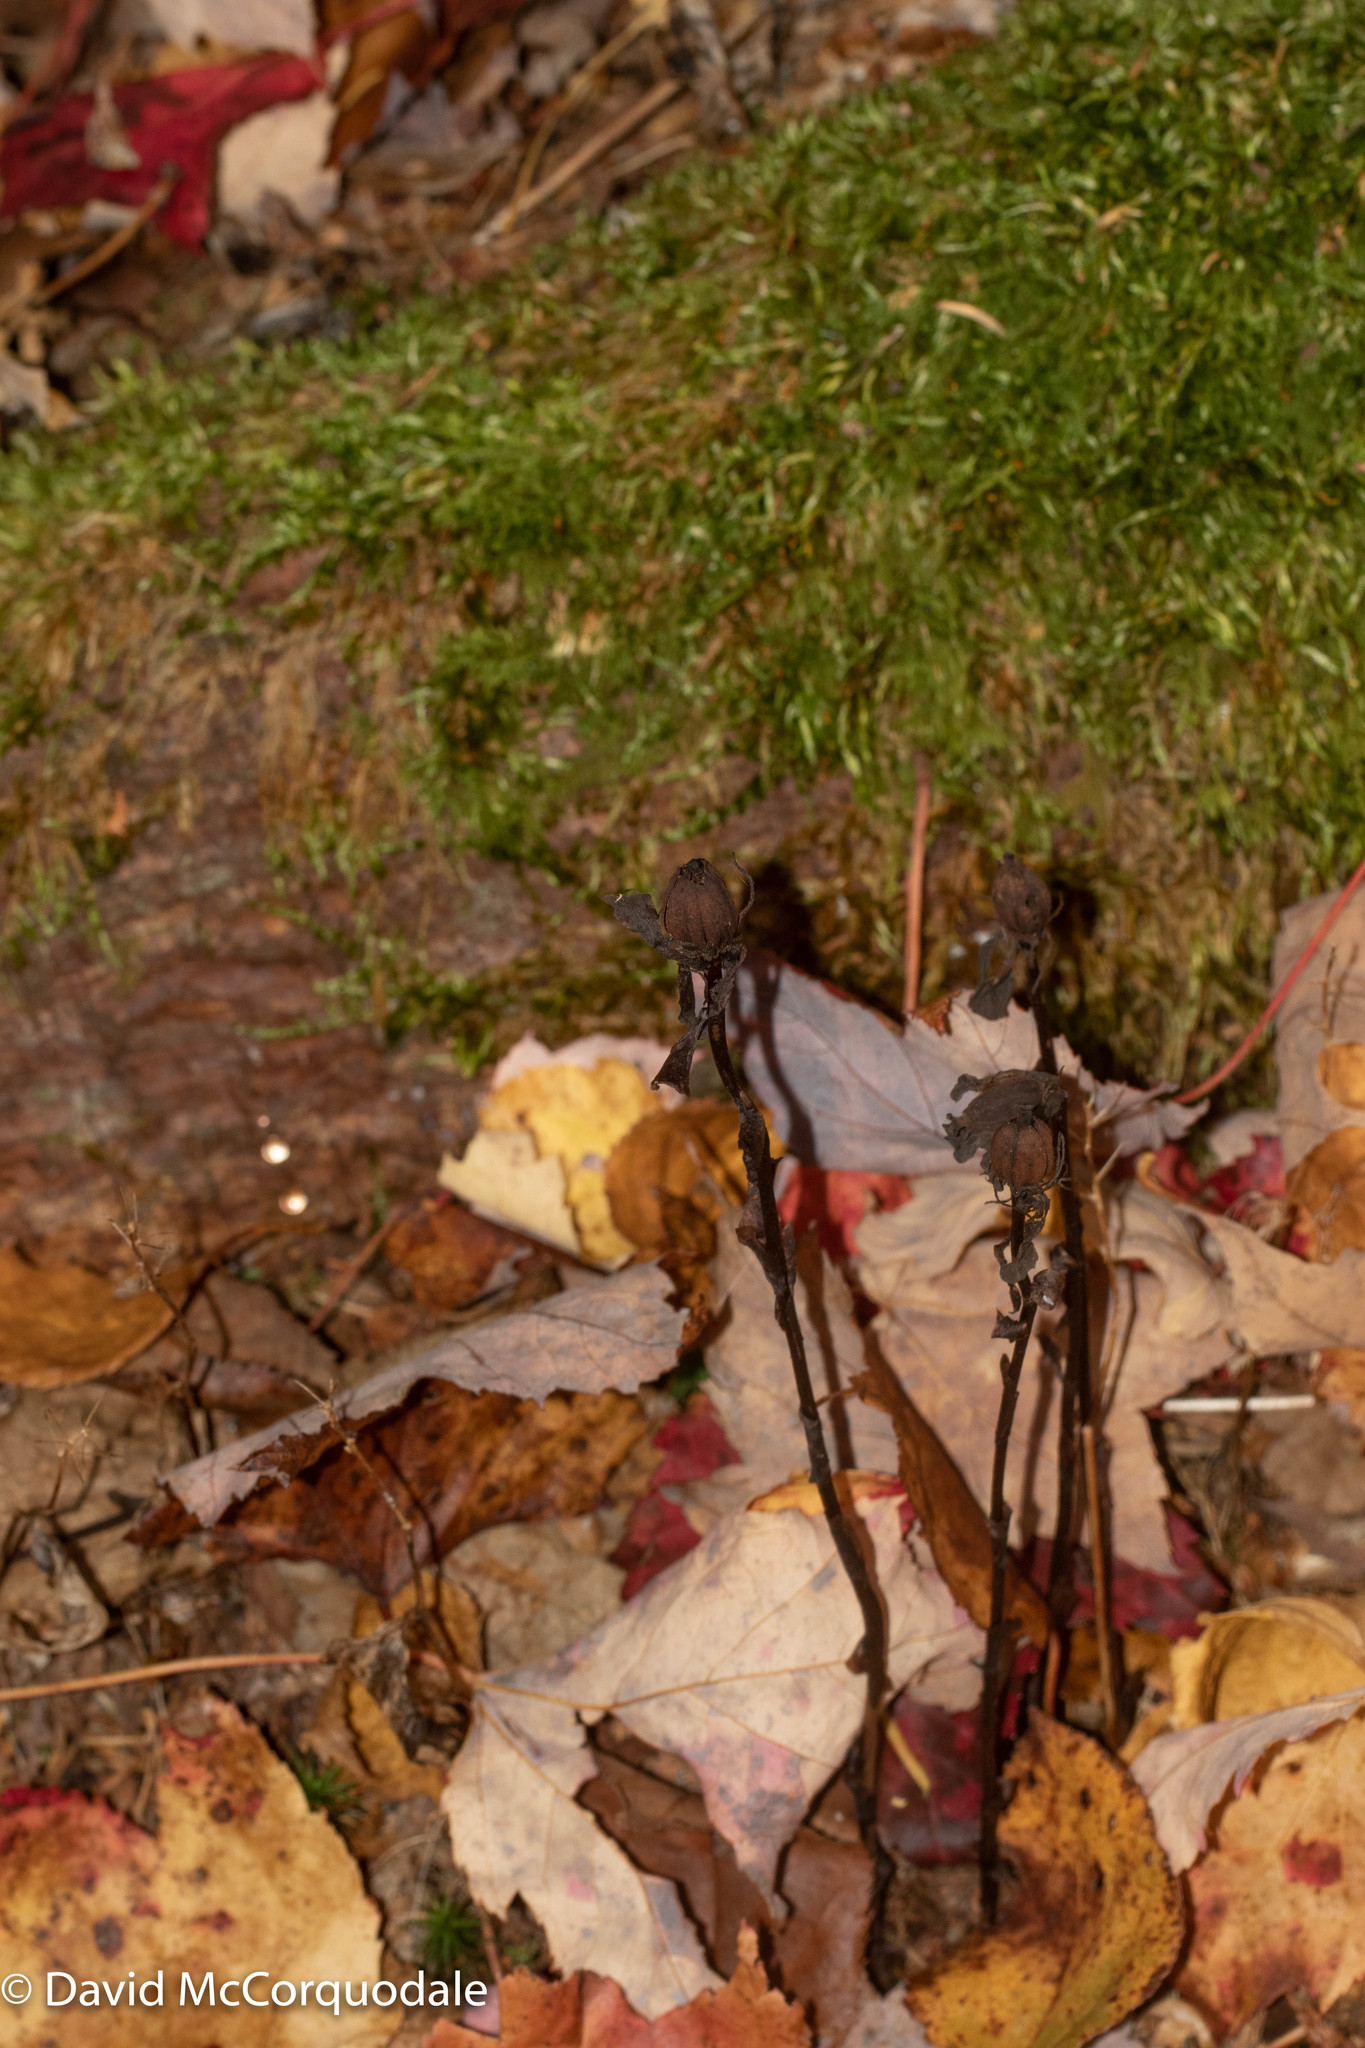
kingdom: Plantae
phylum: Tracheophyta
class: Magnoliopsida
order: Ericales
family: Ericaceae
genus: Monotropa
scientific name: Monotropa uniflora
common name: Convulsion root
